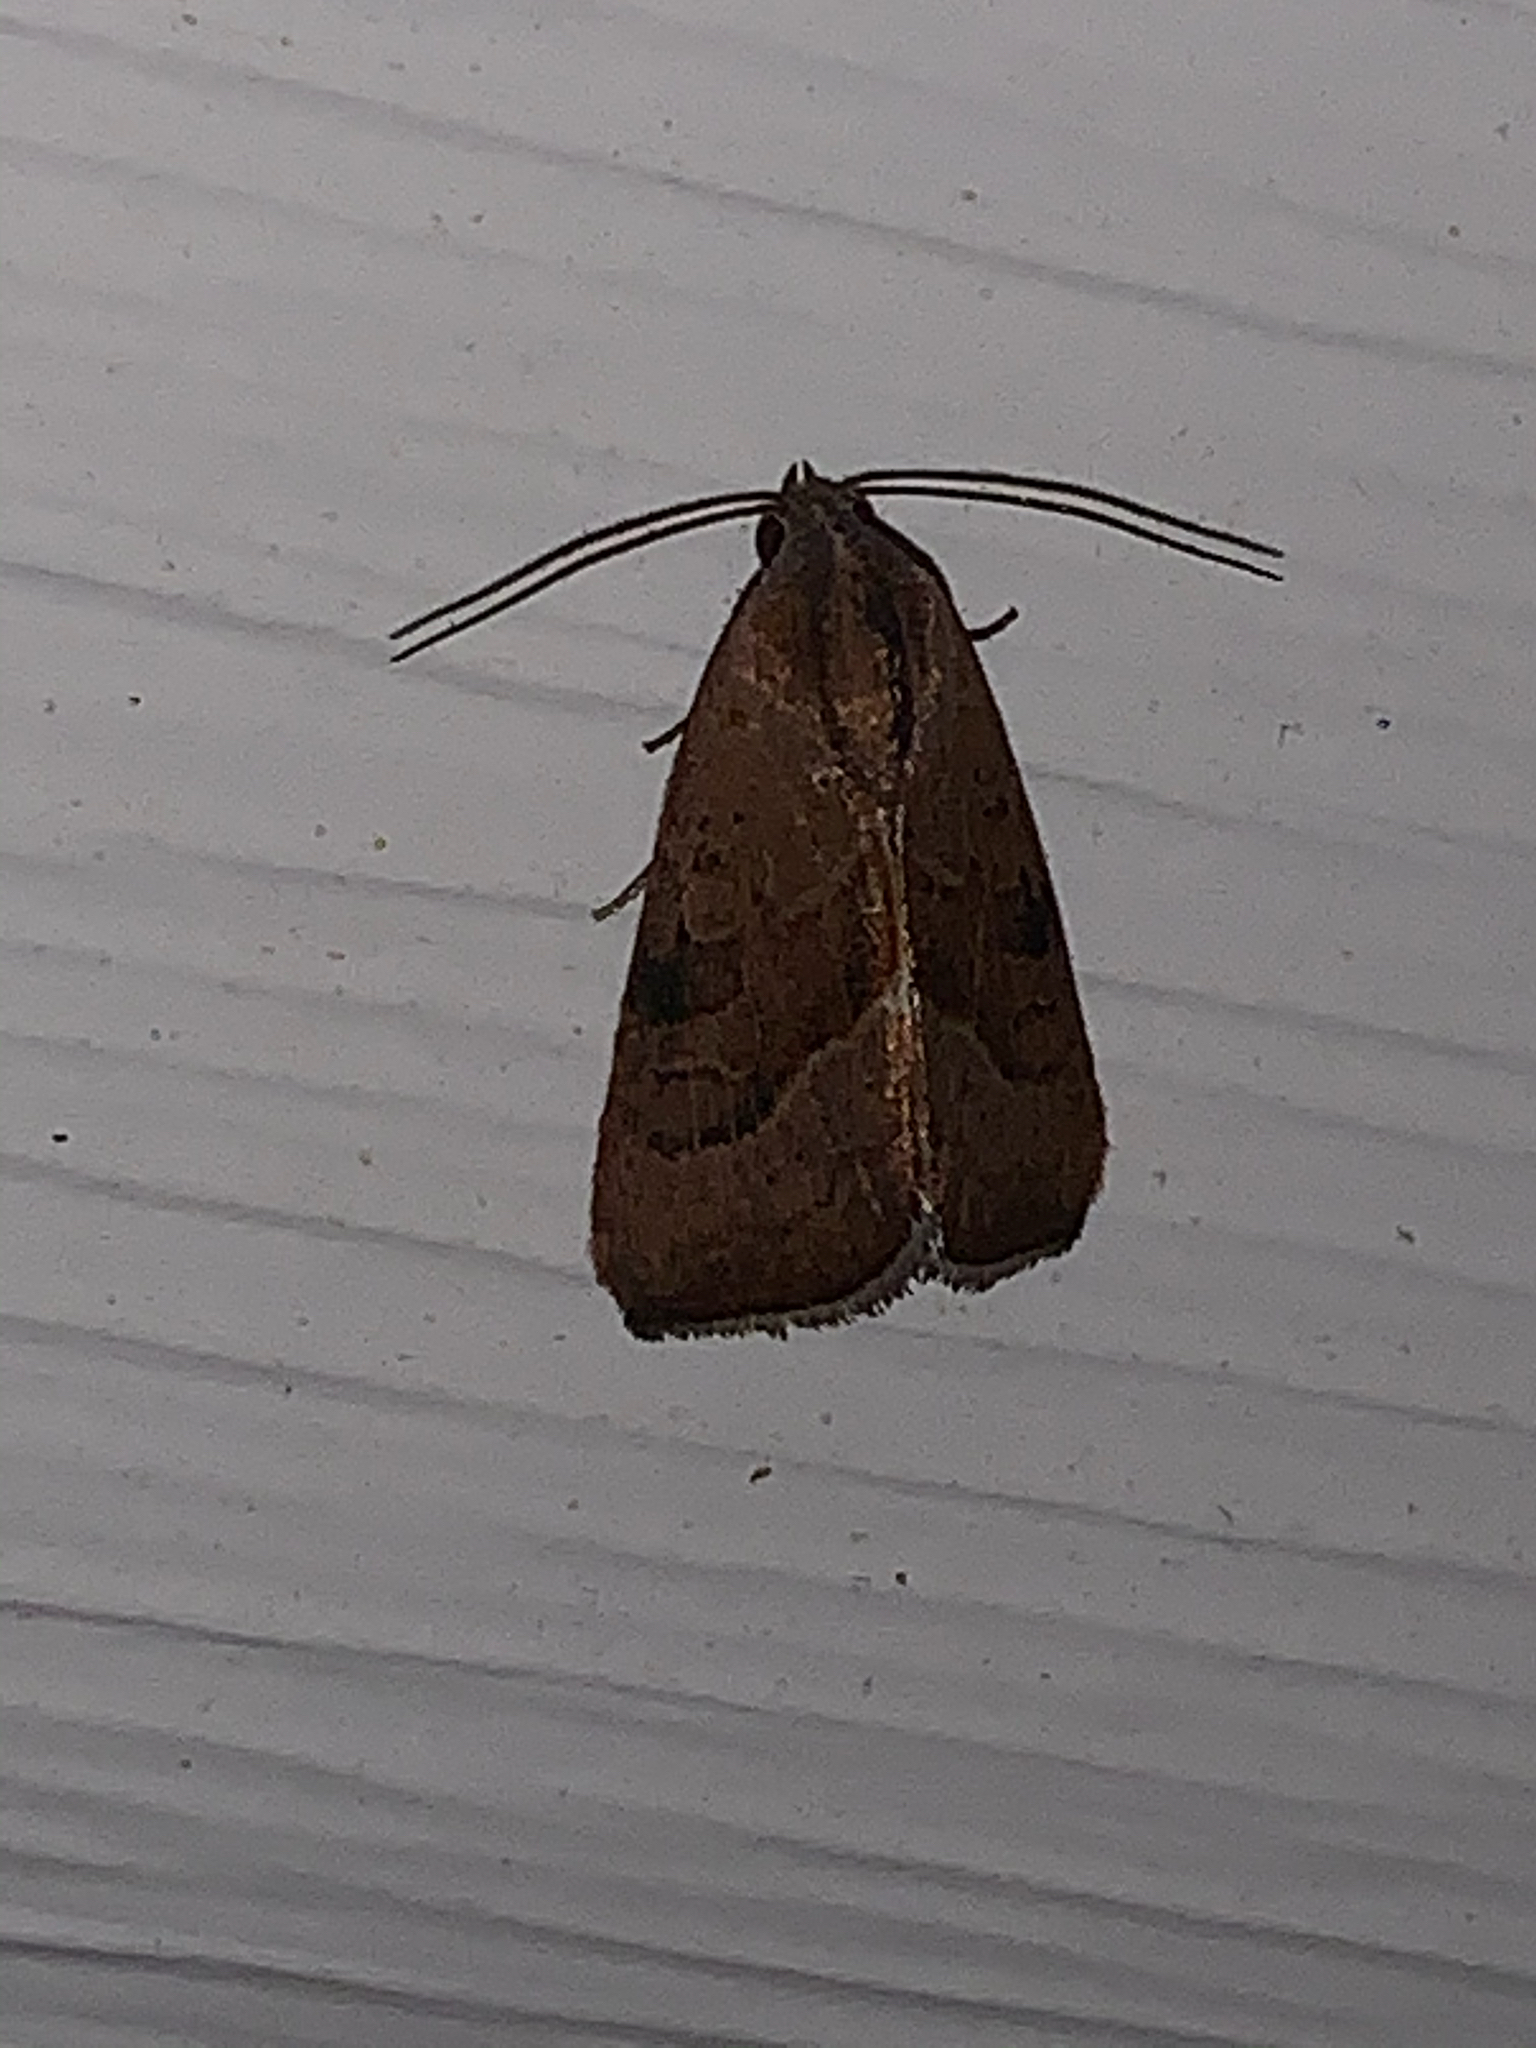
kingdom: Animalia
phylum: Arthropoda
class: Insecta
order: Lepidoptera
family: Noctuidae
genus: Galgula
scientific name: Galgula partita
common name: Wedgeling
